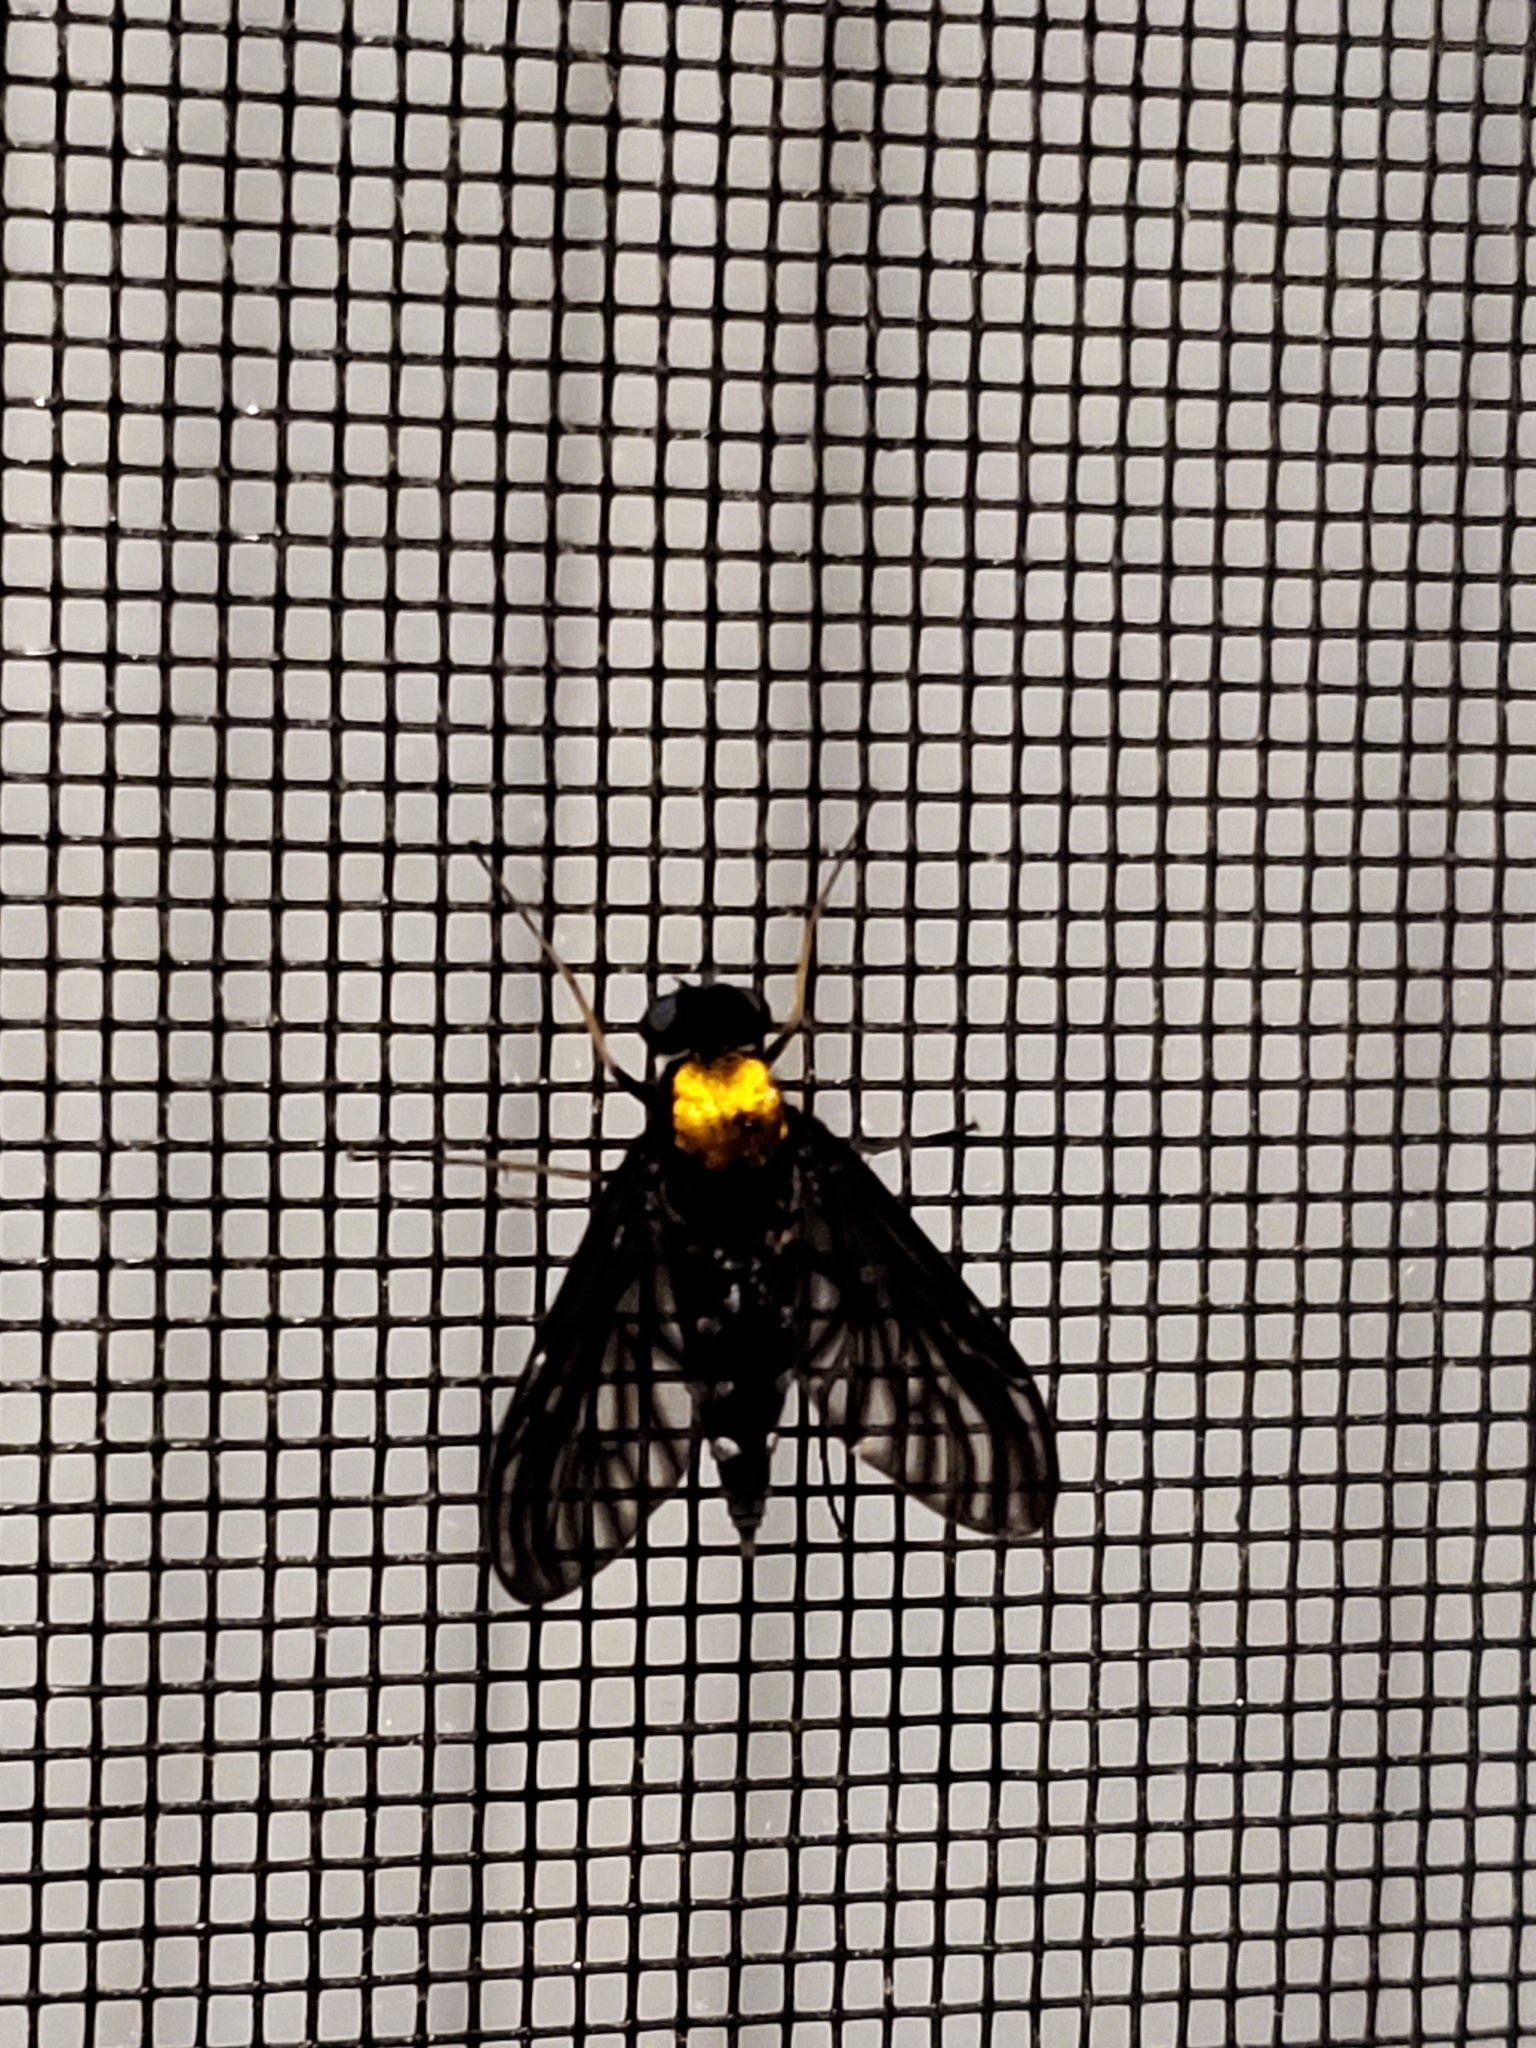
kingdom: Animalia
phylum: Arthropoda
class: Insecta
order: Diptera
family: Rhagionidae
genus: Chrysopilus
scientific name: Chrysopilus thoracicus
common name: Golden-backed snipe fly
